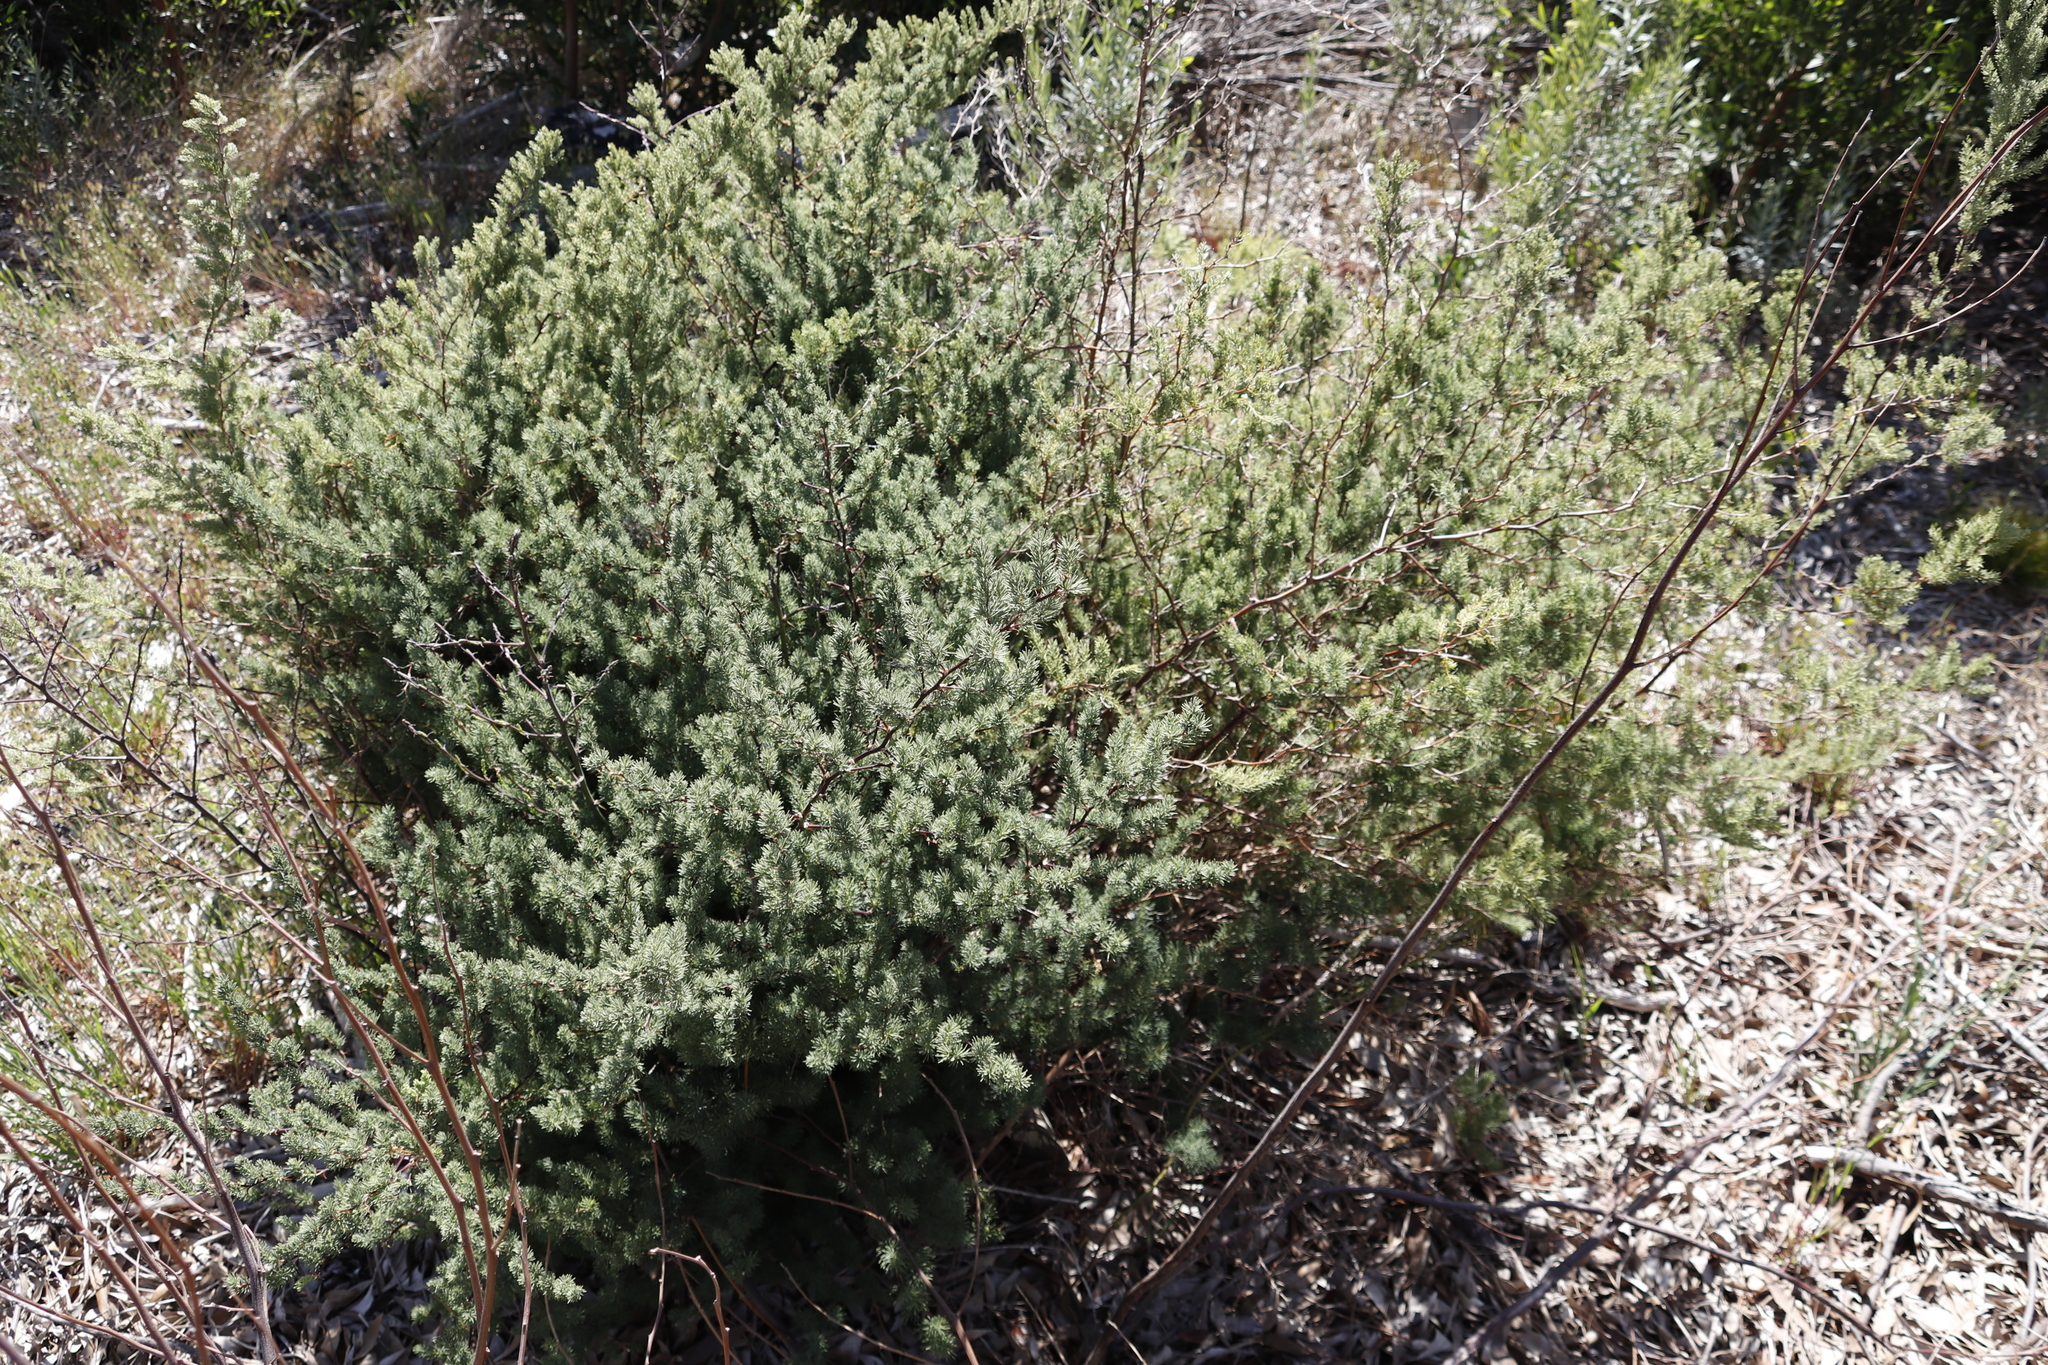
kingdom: Plantae
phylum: Tracheophyta
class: Liliopsida
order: Asparagales
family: Asparagaceae
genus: Asparagus
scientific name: Asparagus rubicundus
